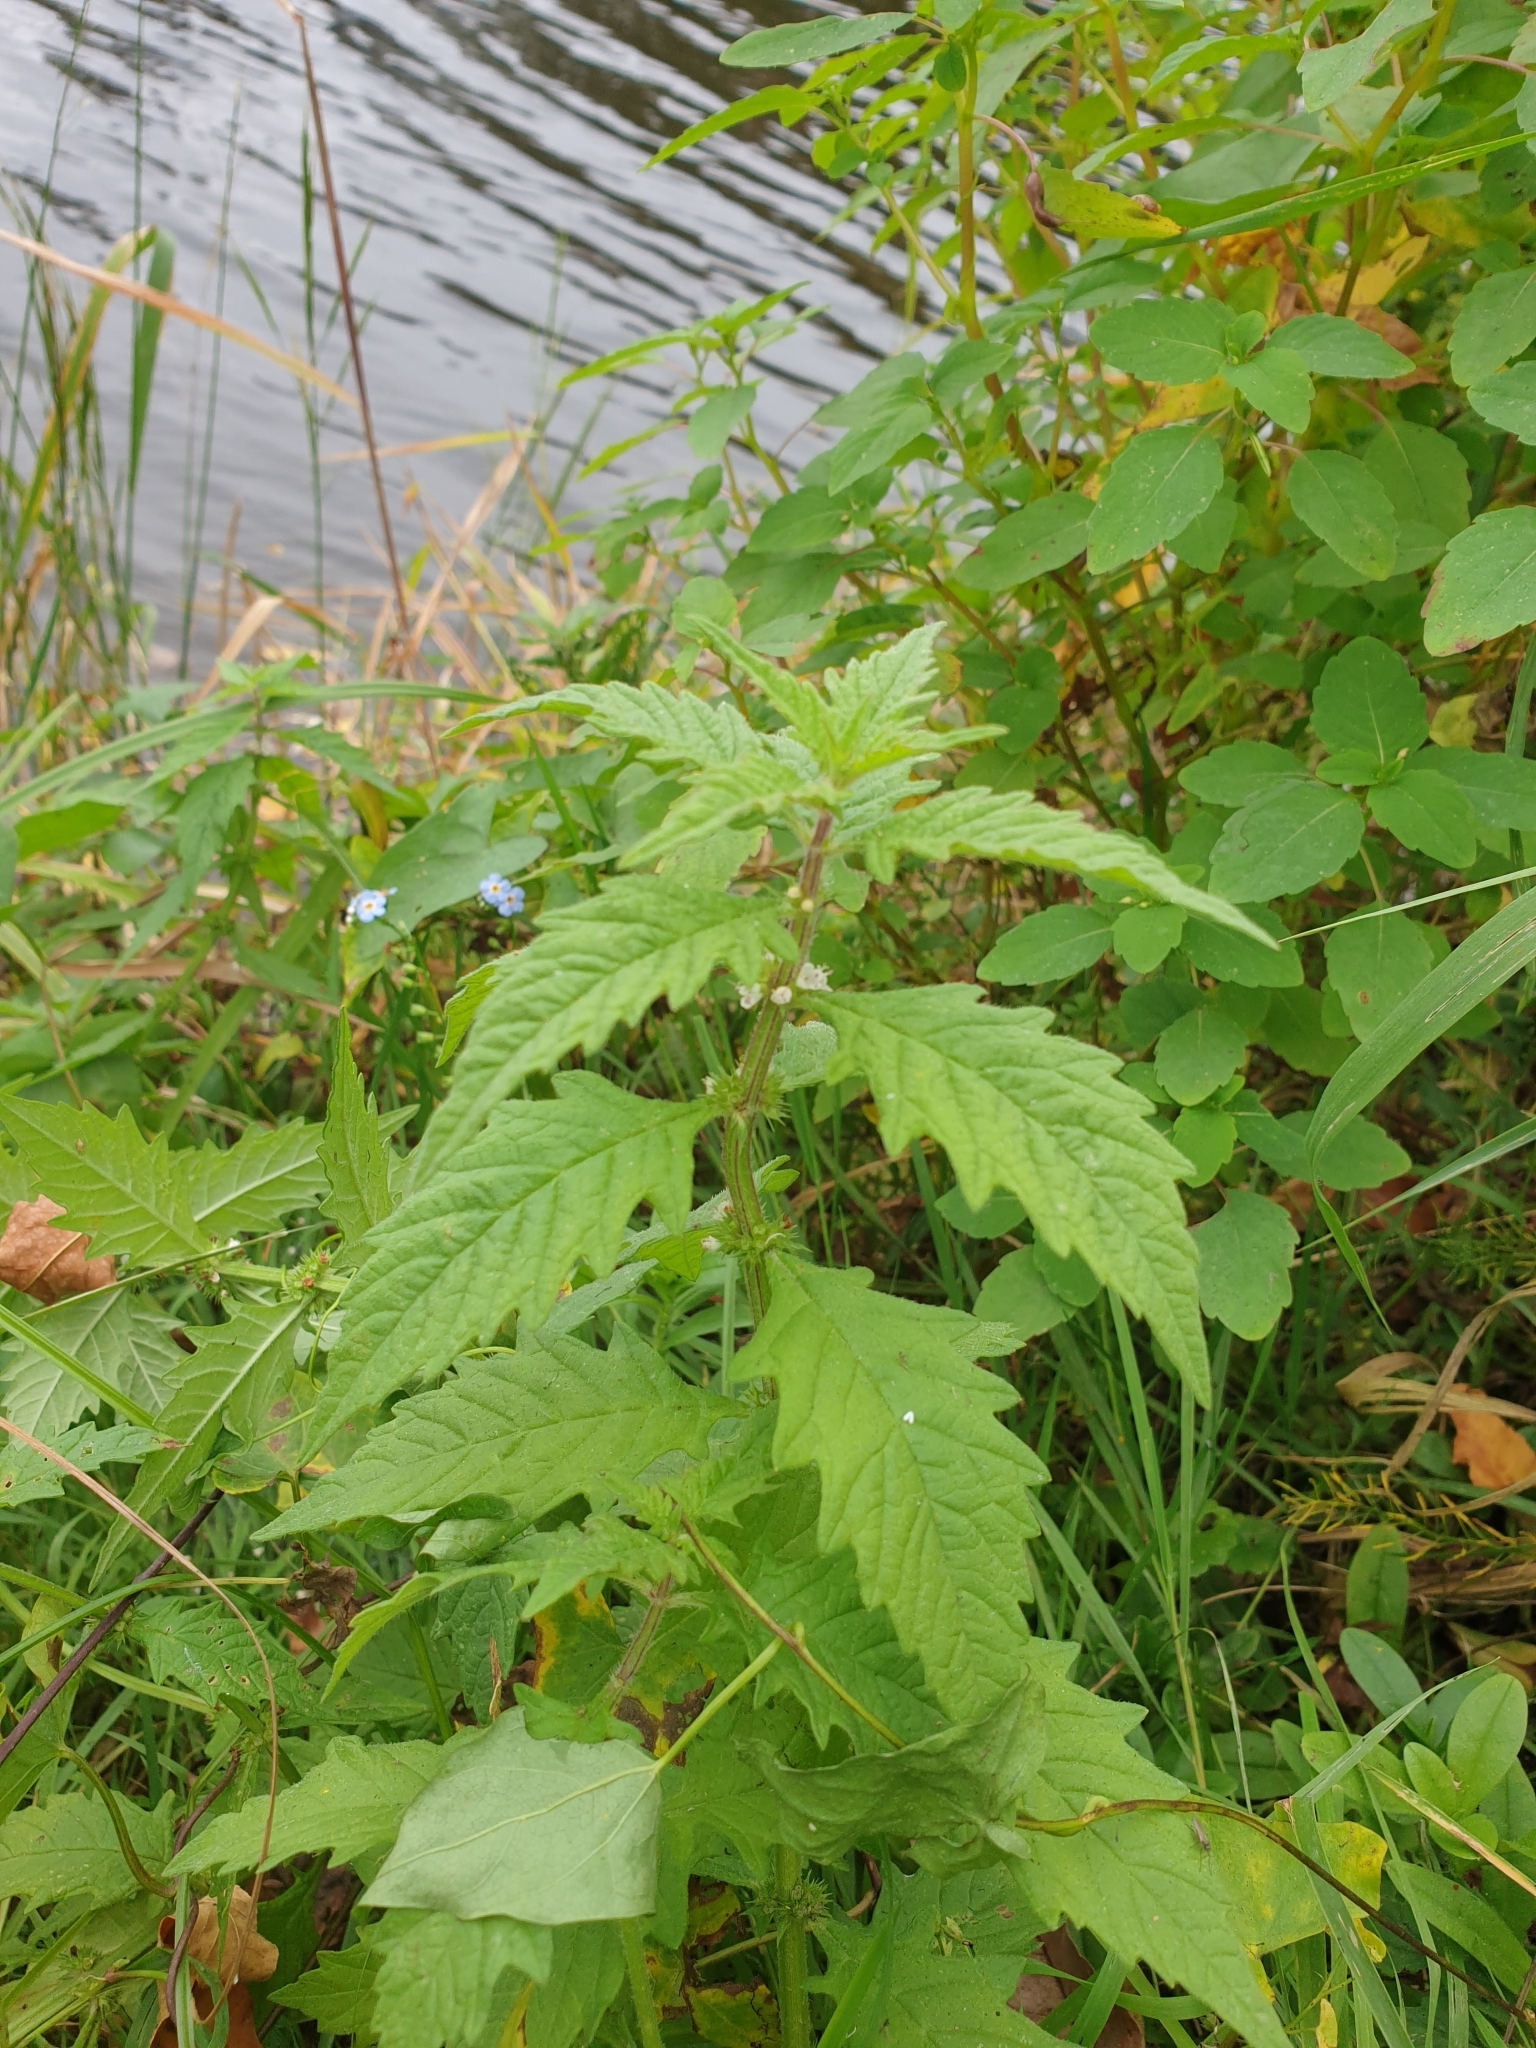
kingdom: Plantae
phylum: Tracheophyta
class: Magnoliopsida
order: Lamiales
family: Lamiaceae
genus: Lycopus
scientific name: Lycopus europaeus
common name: European bugleweed
